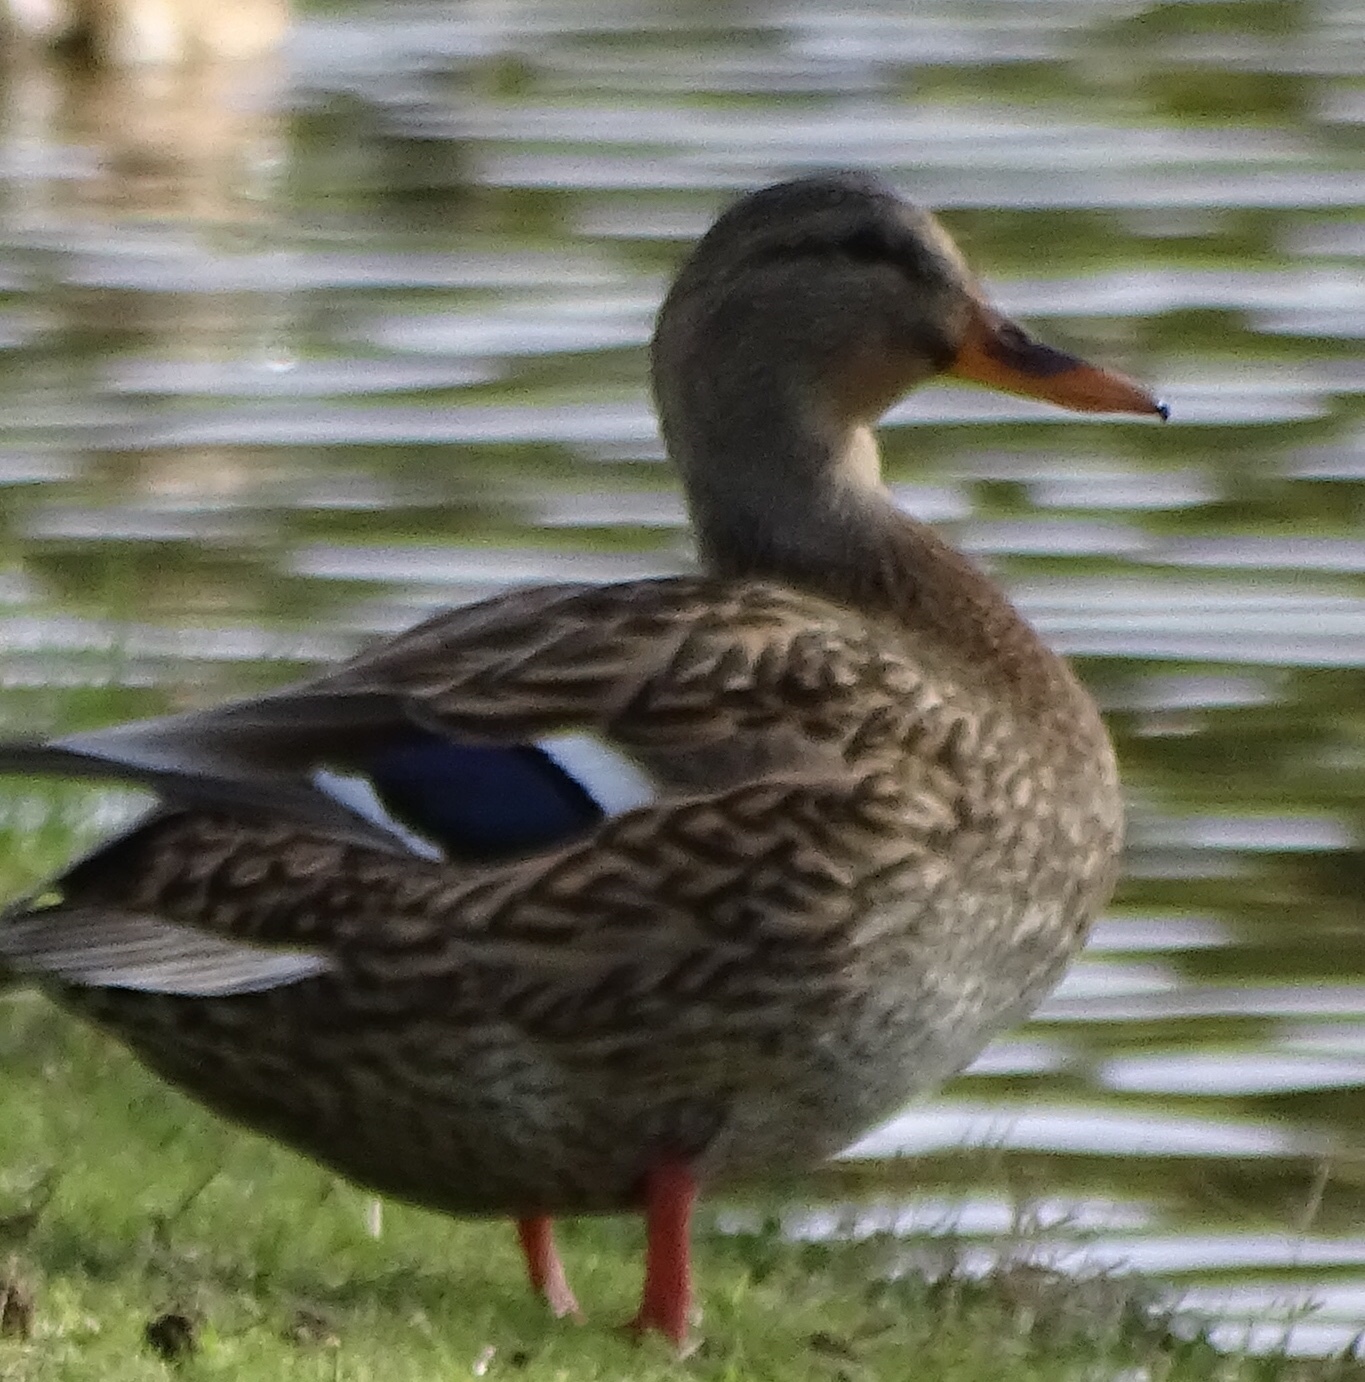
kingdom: Animalia
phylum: Chordata
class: Aves
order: Anseriformes
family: Anatidae
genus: Anas
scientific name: Anas platyrhynchos
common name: Mallard
